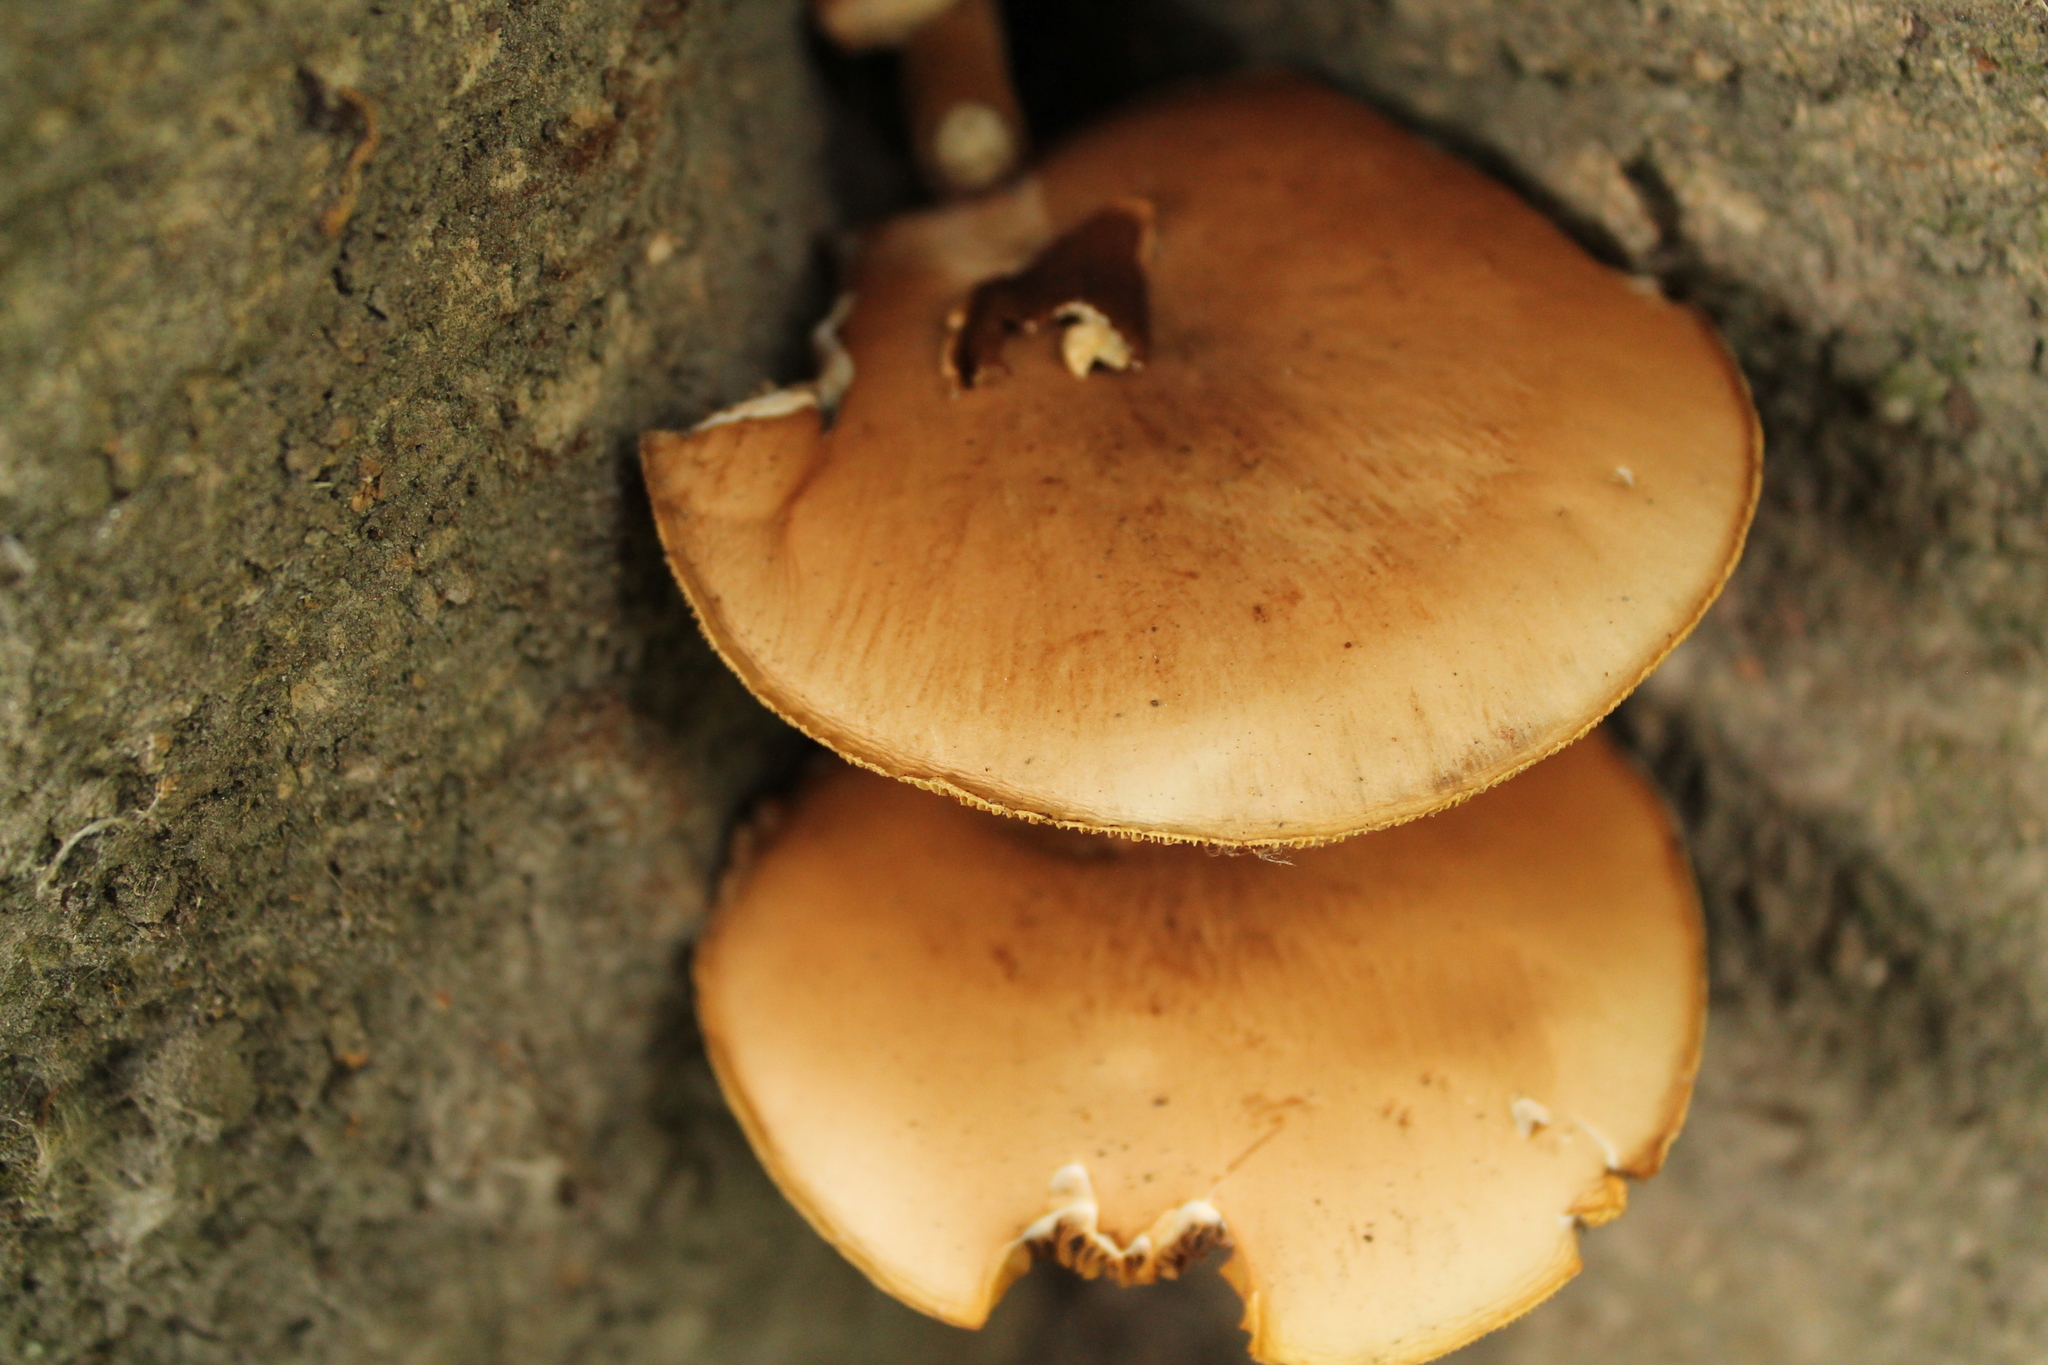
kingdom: Fungi
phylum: Basidiomycota
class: Agaricomycetes
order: Agaricales
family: Tubariaceae
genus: Cyclocybe
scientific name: Cyclocybe parasitica
